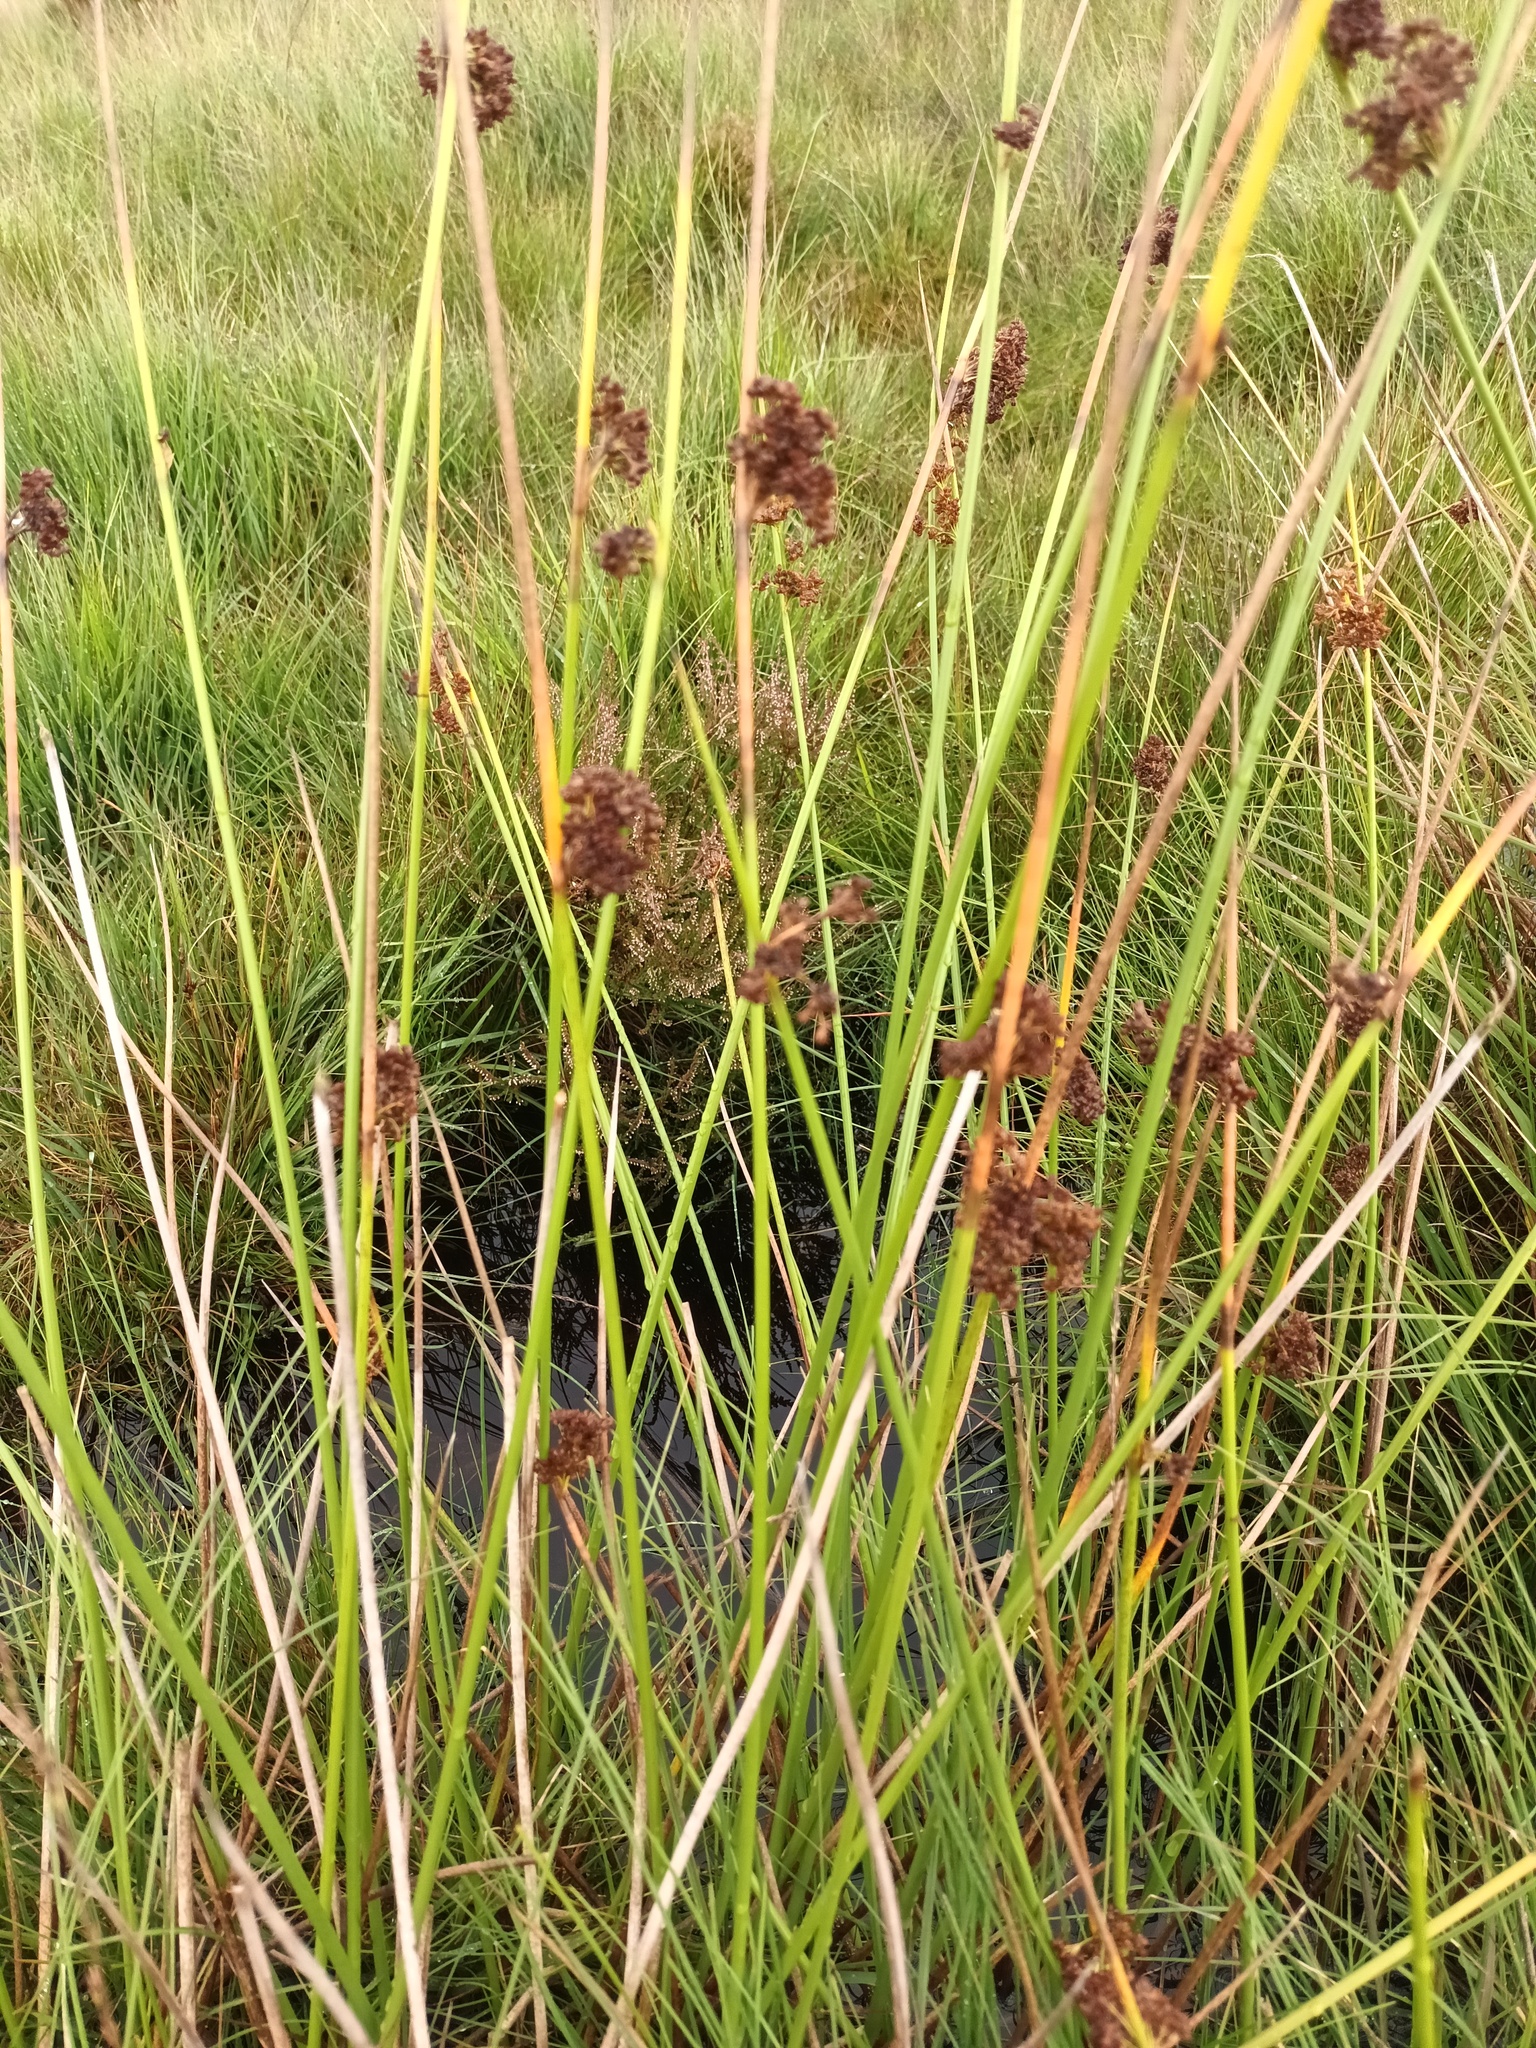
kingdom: Plantae
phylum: Tracheophyta
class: Liliopsida
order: Poales
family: Juncaceae
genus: Juncus
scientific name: Juncus effusus
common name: Soft rush
